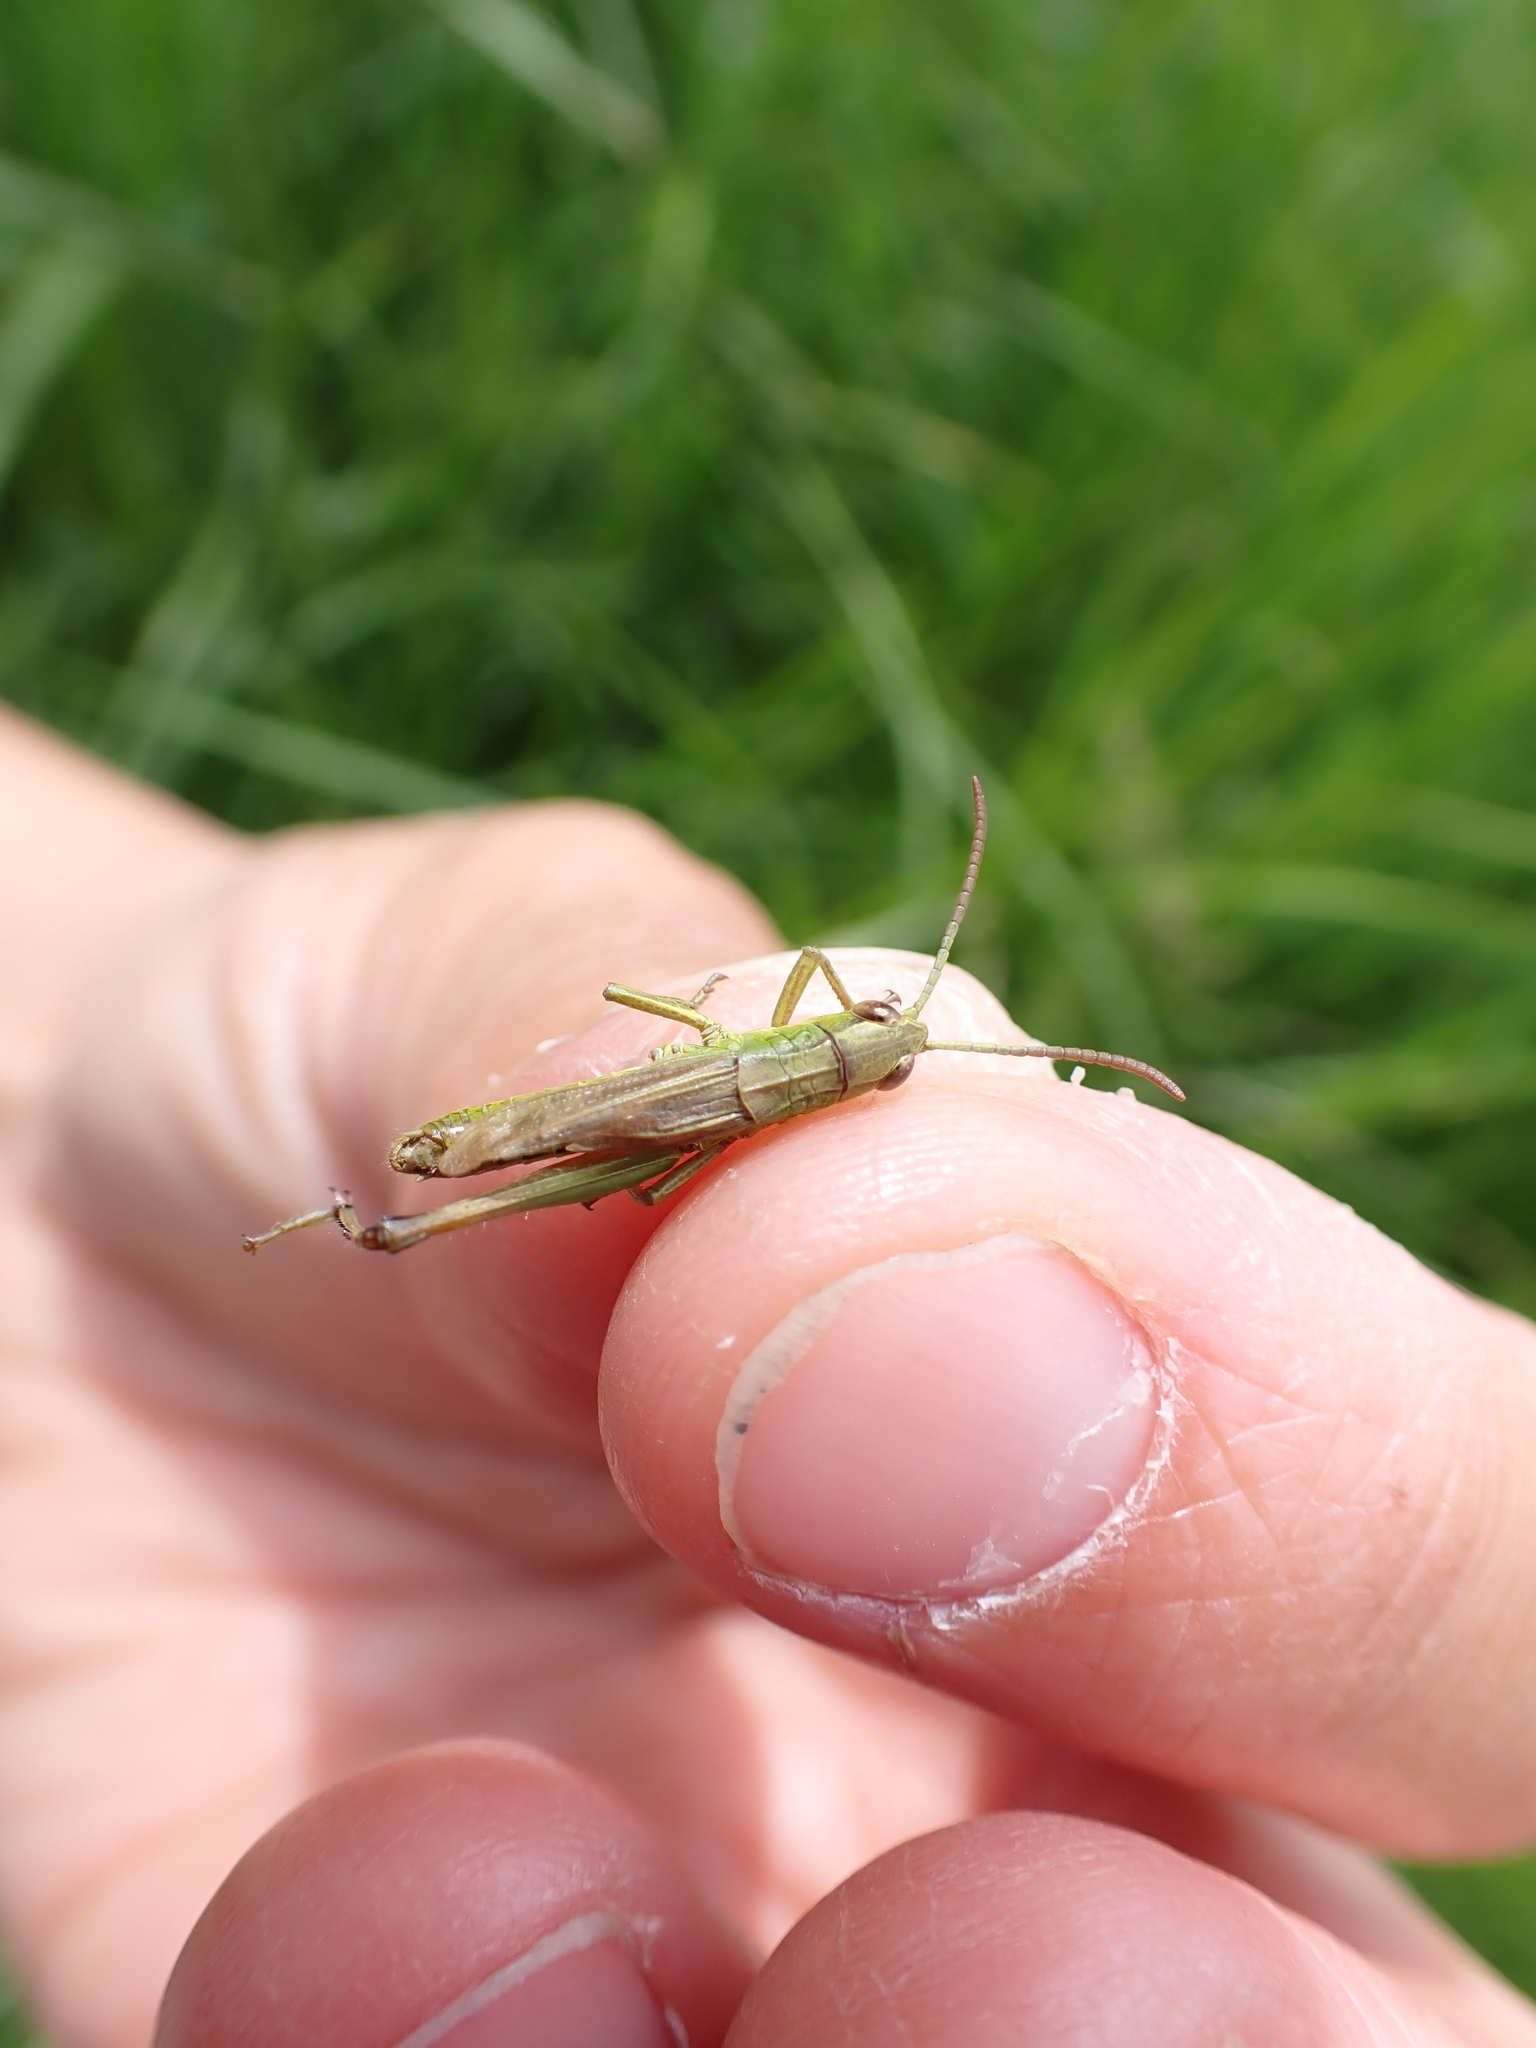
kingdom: Animalia
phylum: Arthropoda
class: Insecta
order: Orthoptera
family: Acrididae
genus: Pseudochorthippus
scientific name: Pseudochorthippus parallelus
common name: Meadow grasshopper
